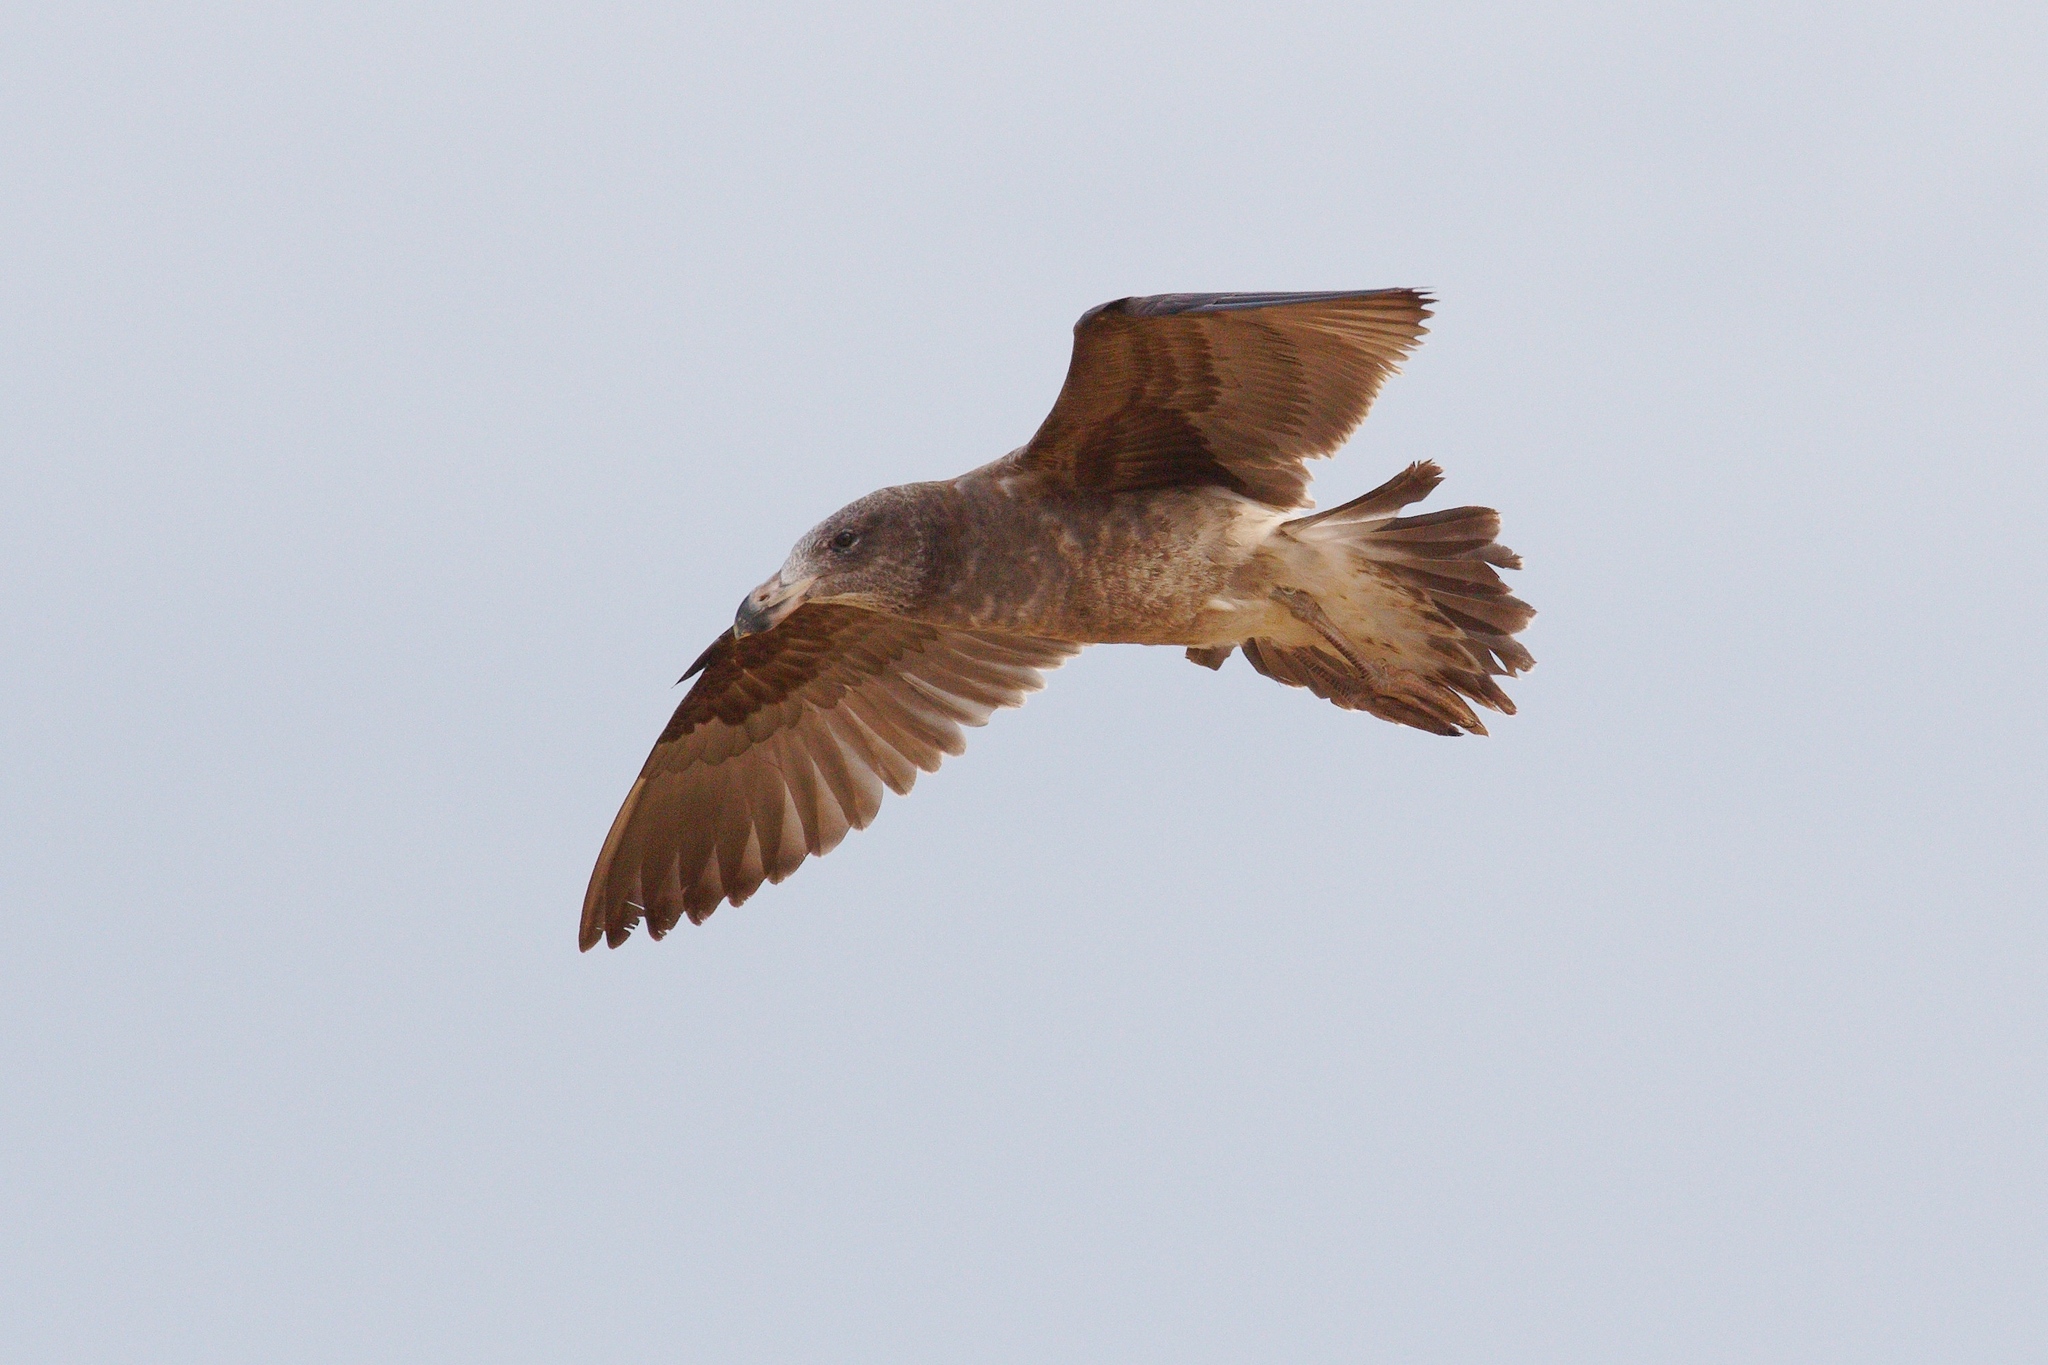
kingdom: Animalia
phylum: Chordata
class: Aves
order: Charadriiformes
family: Laridae
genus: Larus
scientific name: Larus pacificus
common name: Pacific gull
